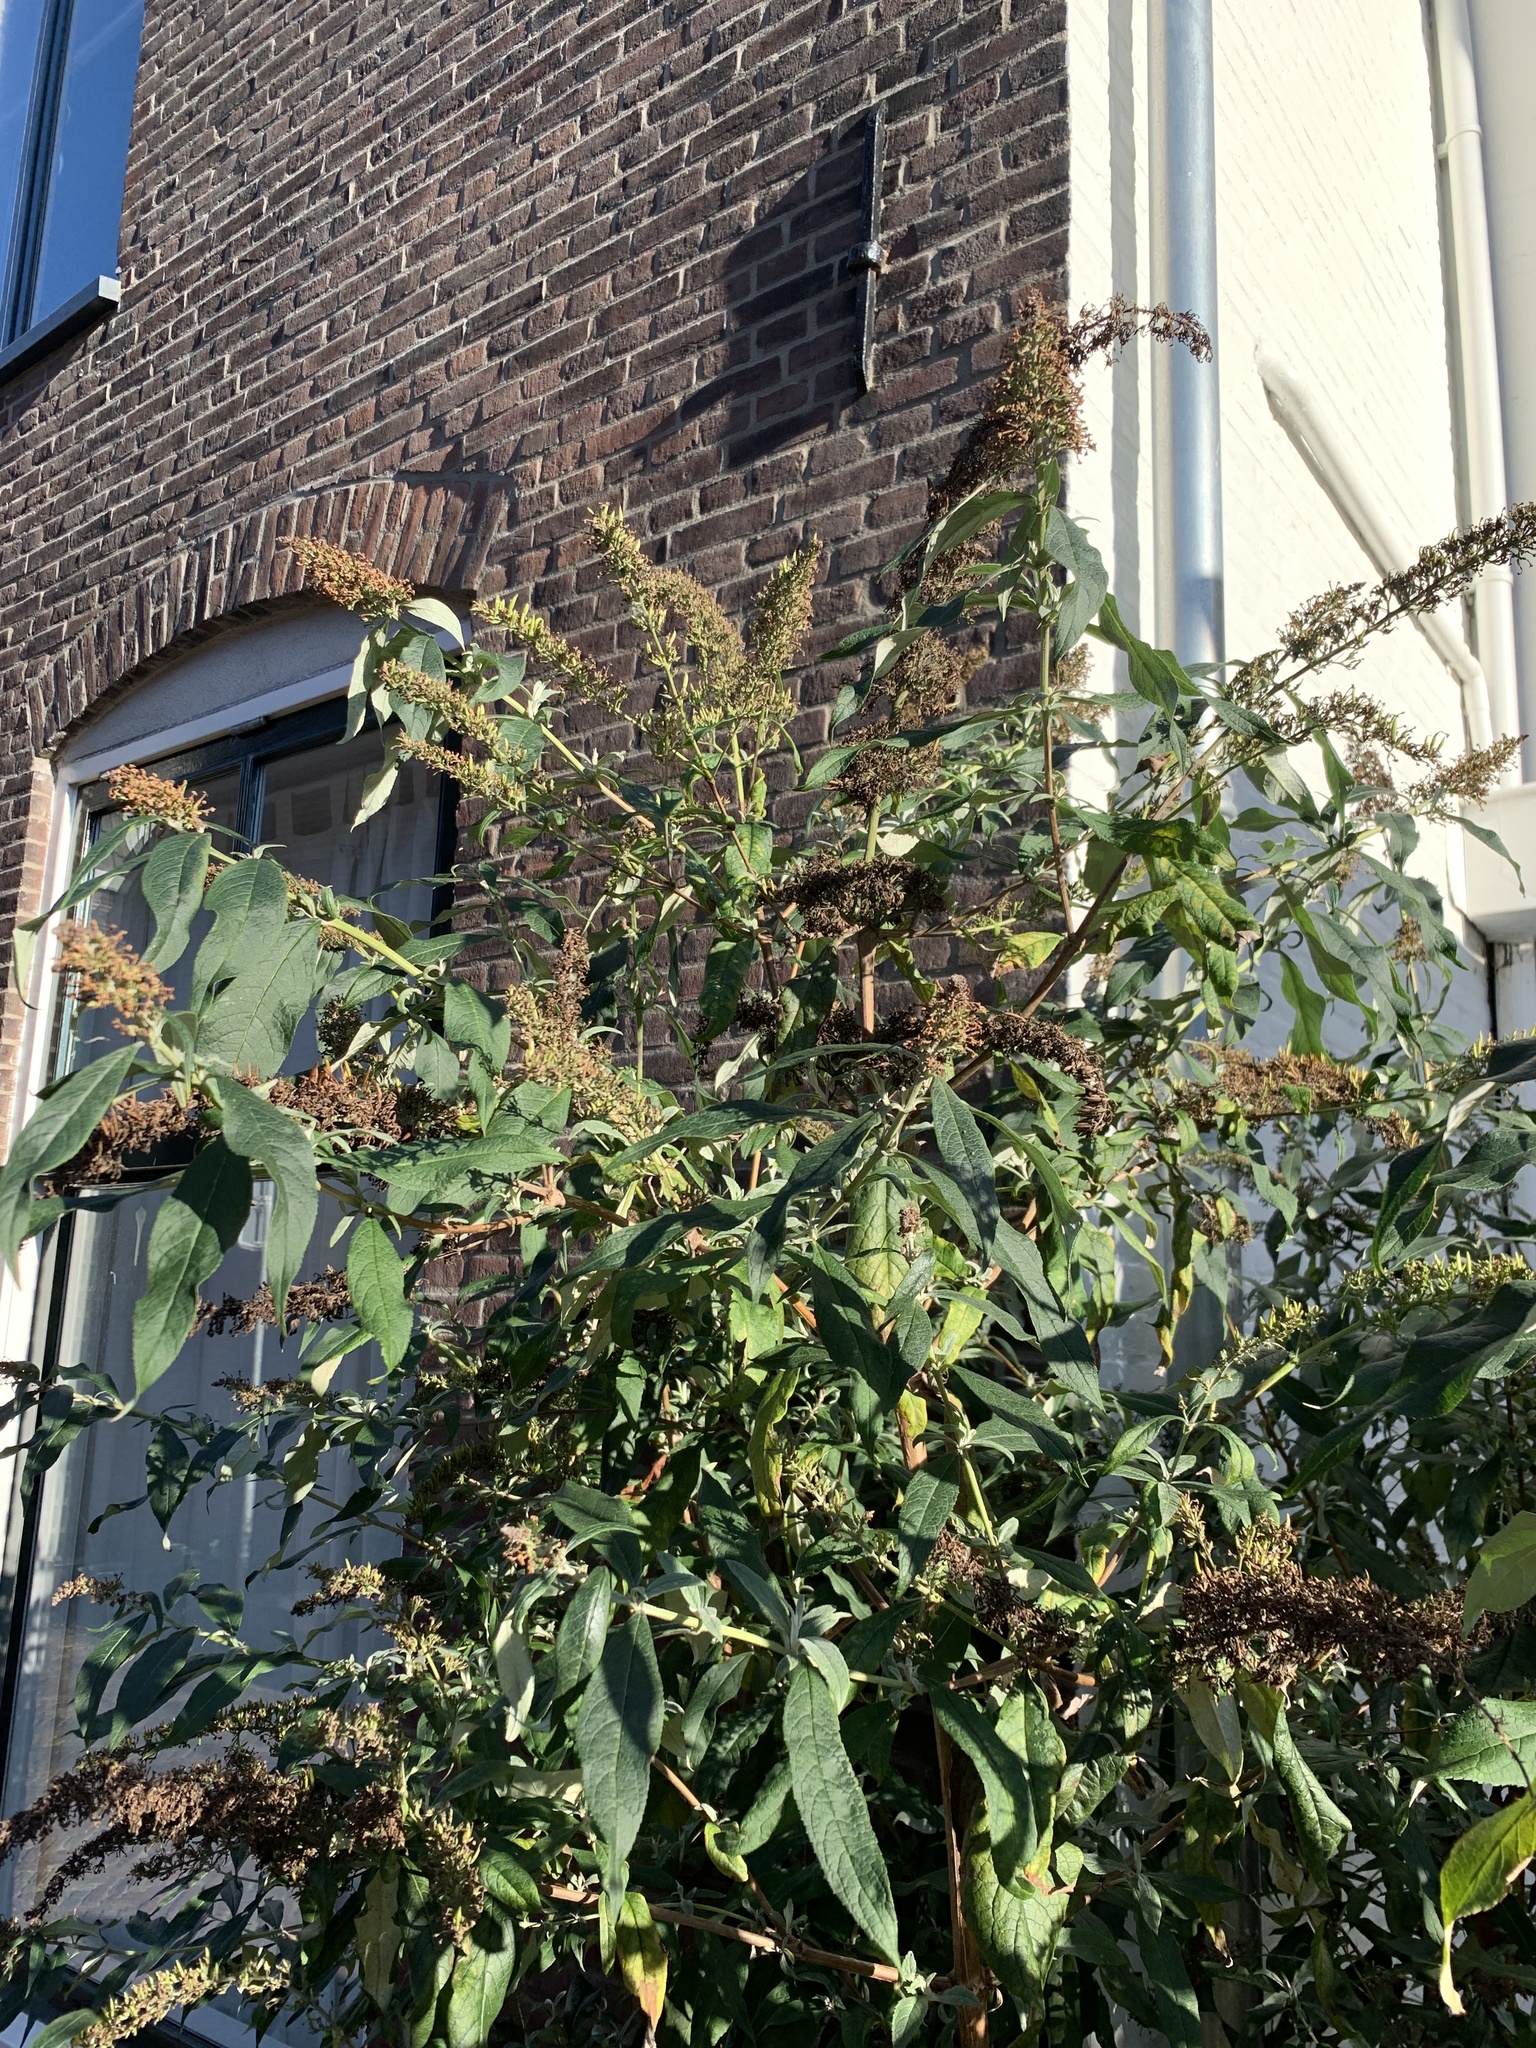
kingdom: Plantae
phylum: Tracheophyta
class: Magnoliopsida
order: Lamiales
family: Scrophulariaceae
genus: Buddleja
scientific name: Buddleja davidii
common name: Butterfly-bush
